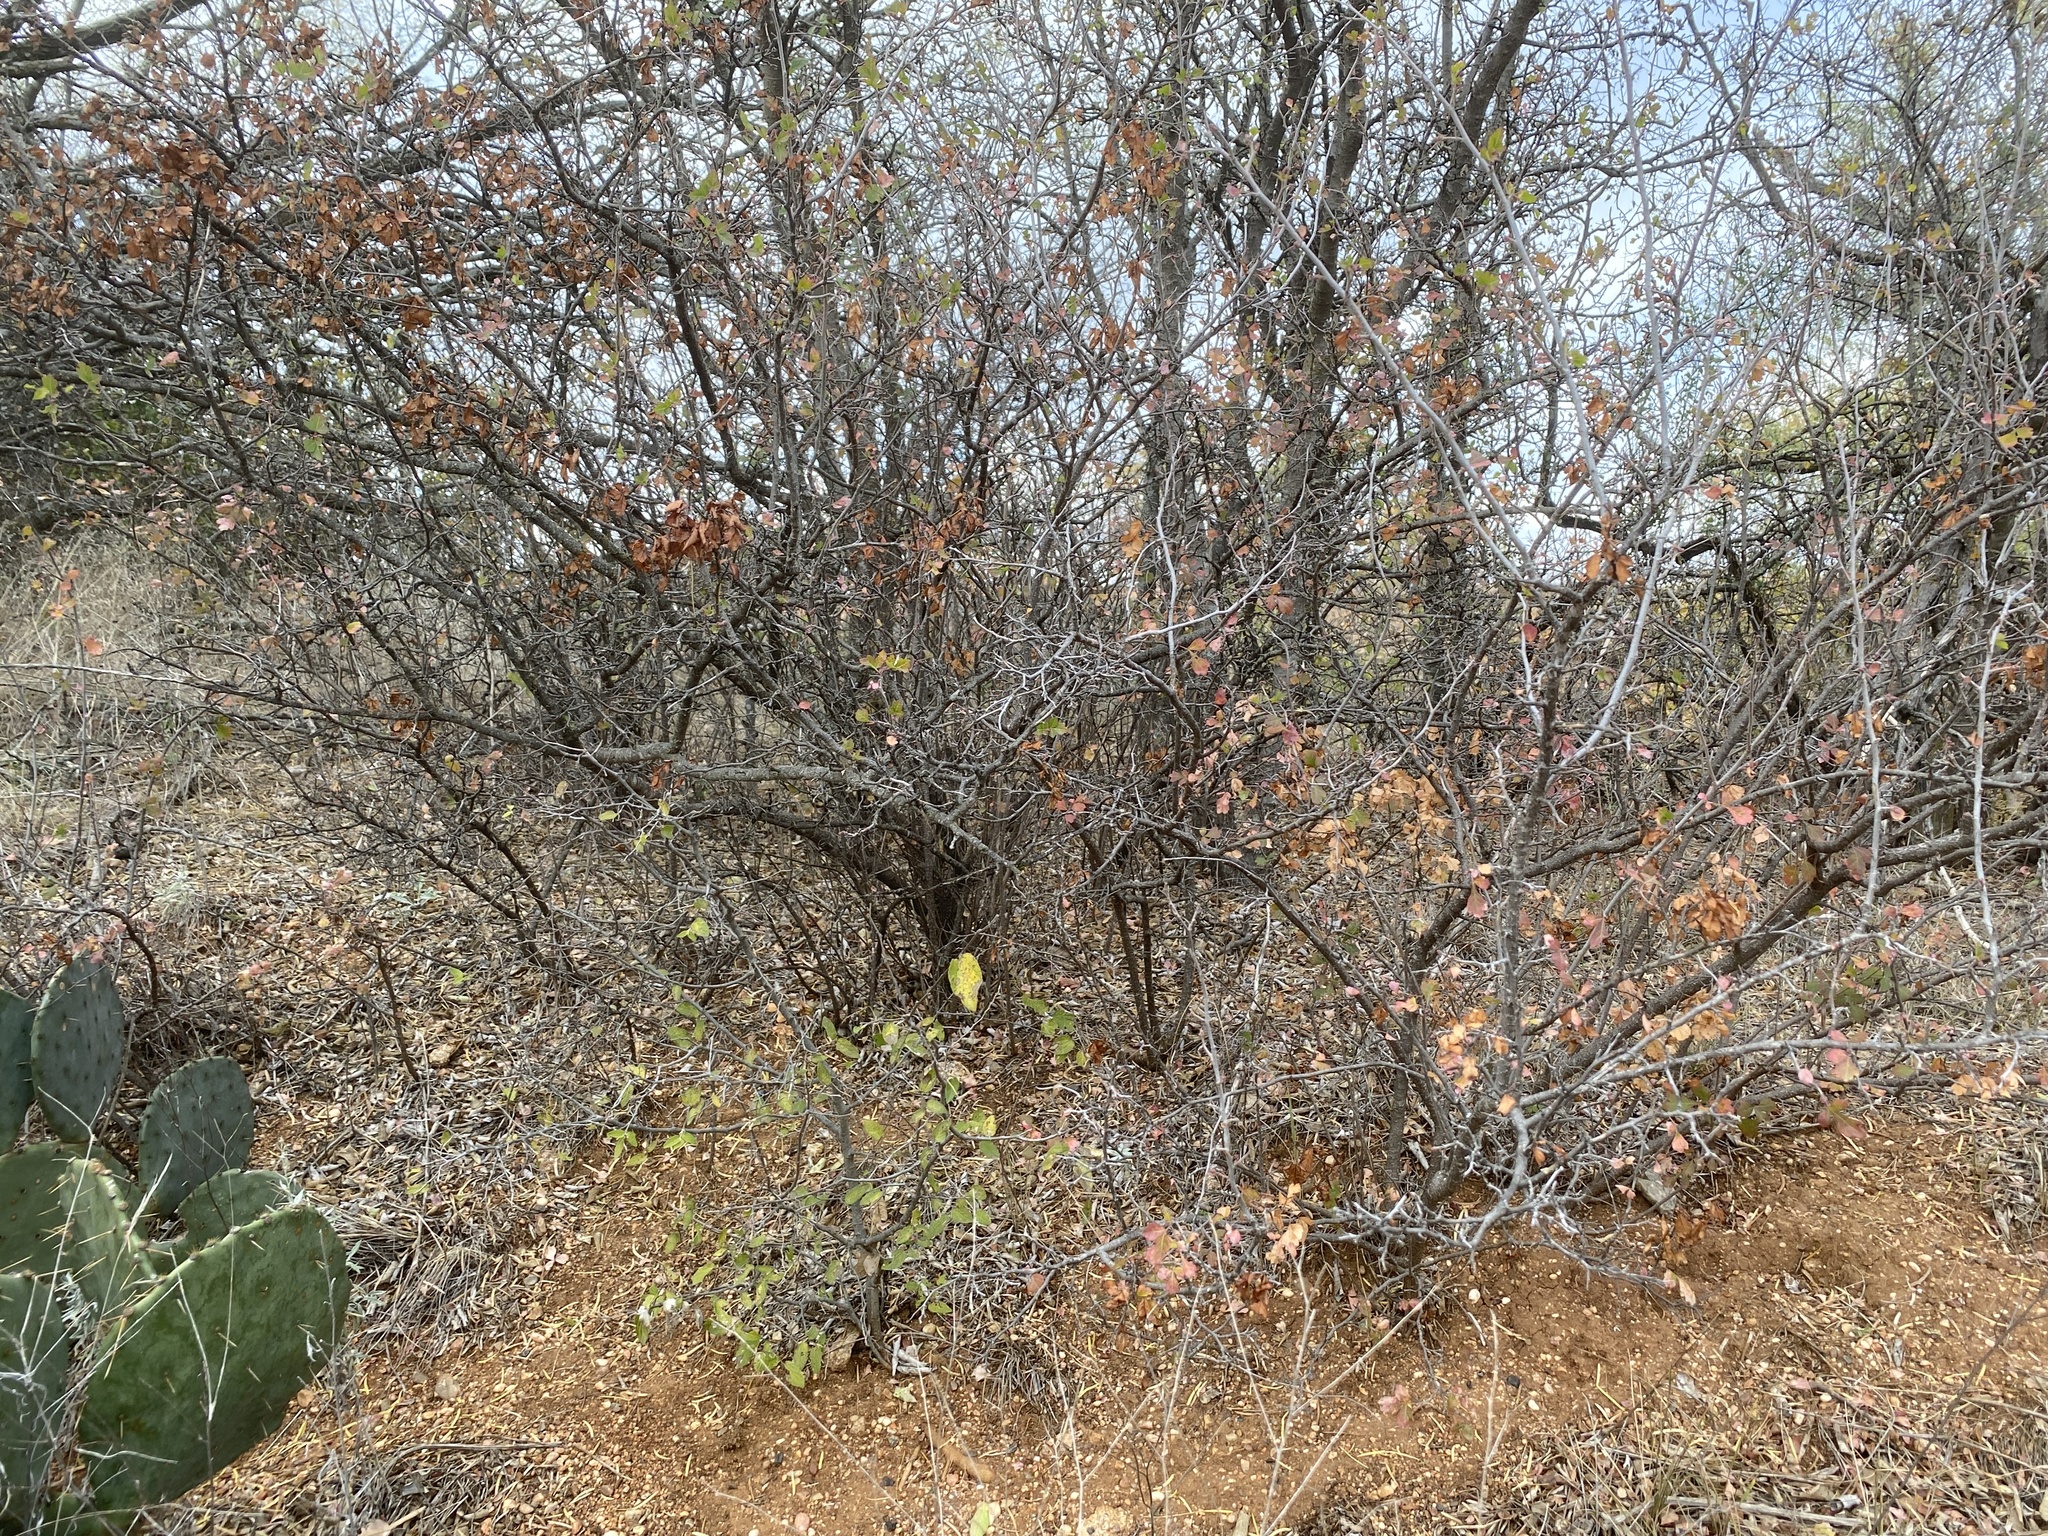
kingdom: Plantae
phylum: Tracheophyta
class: Magnoliopsida
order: Sapindales
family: Anacardiaceae
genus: Rhus
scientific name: Rhus aromatica
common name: Aromatic sumac
